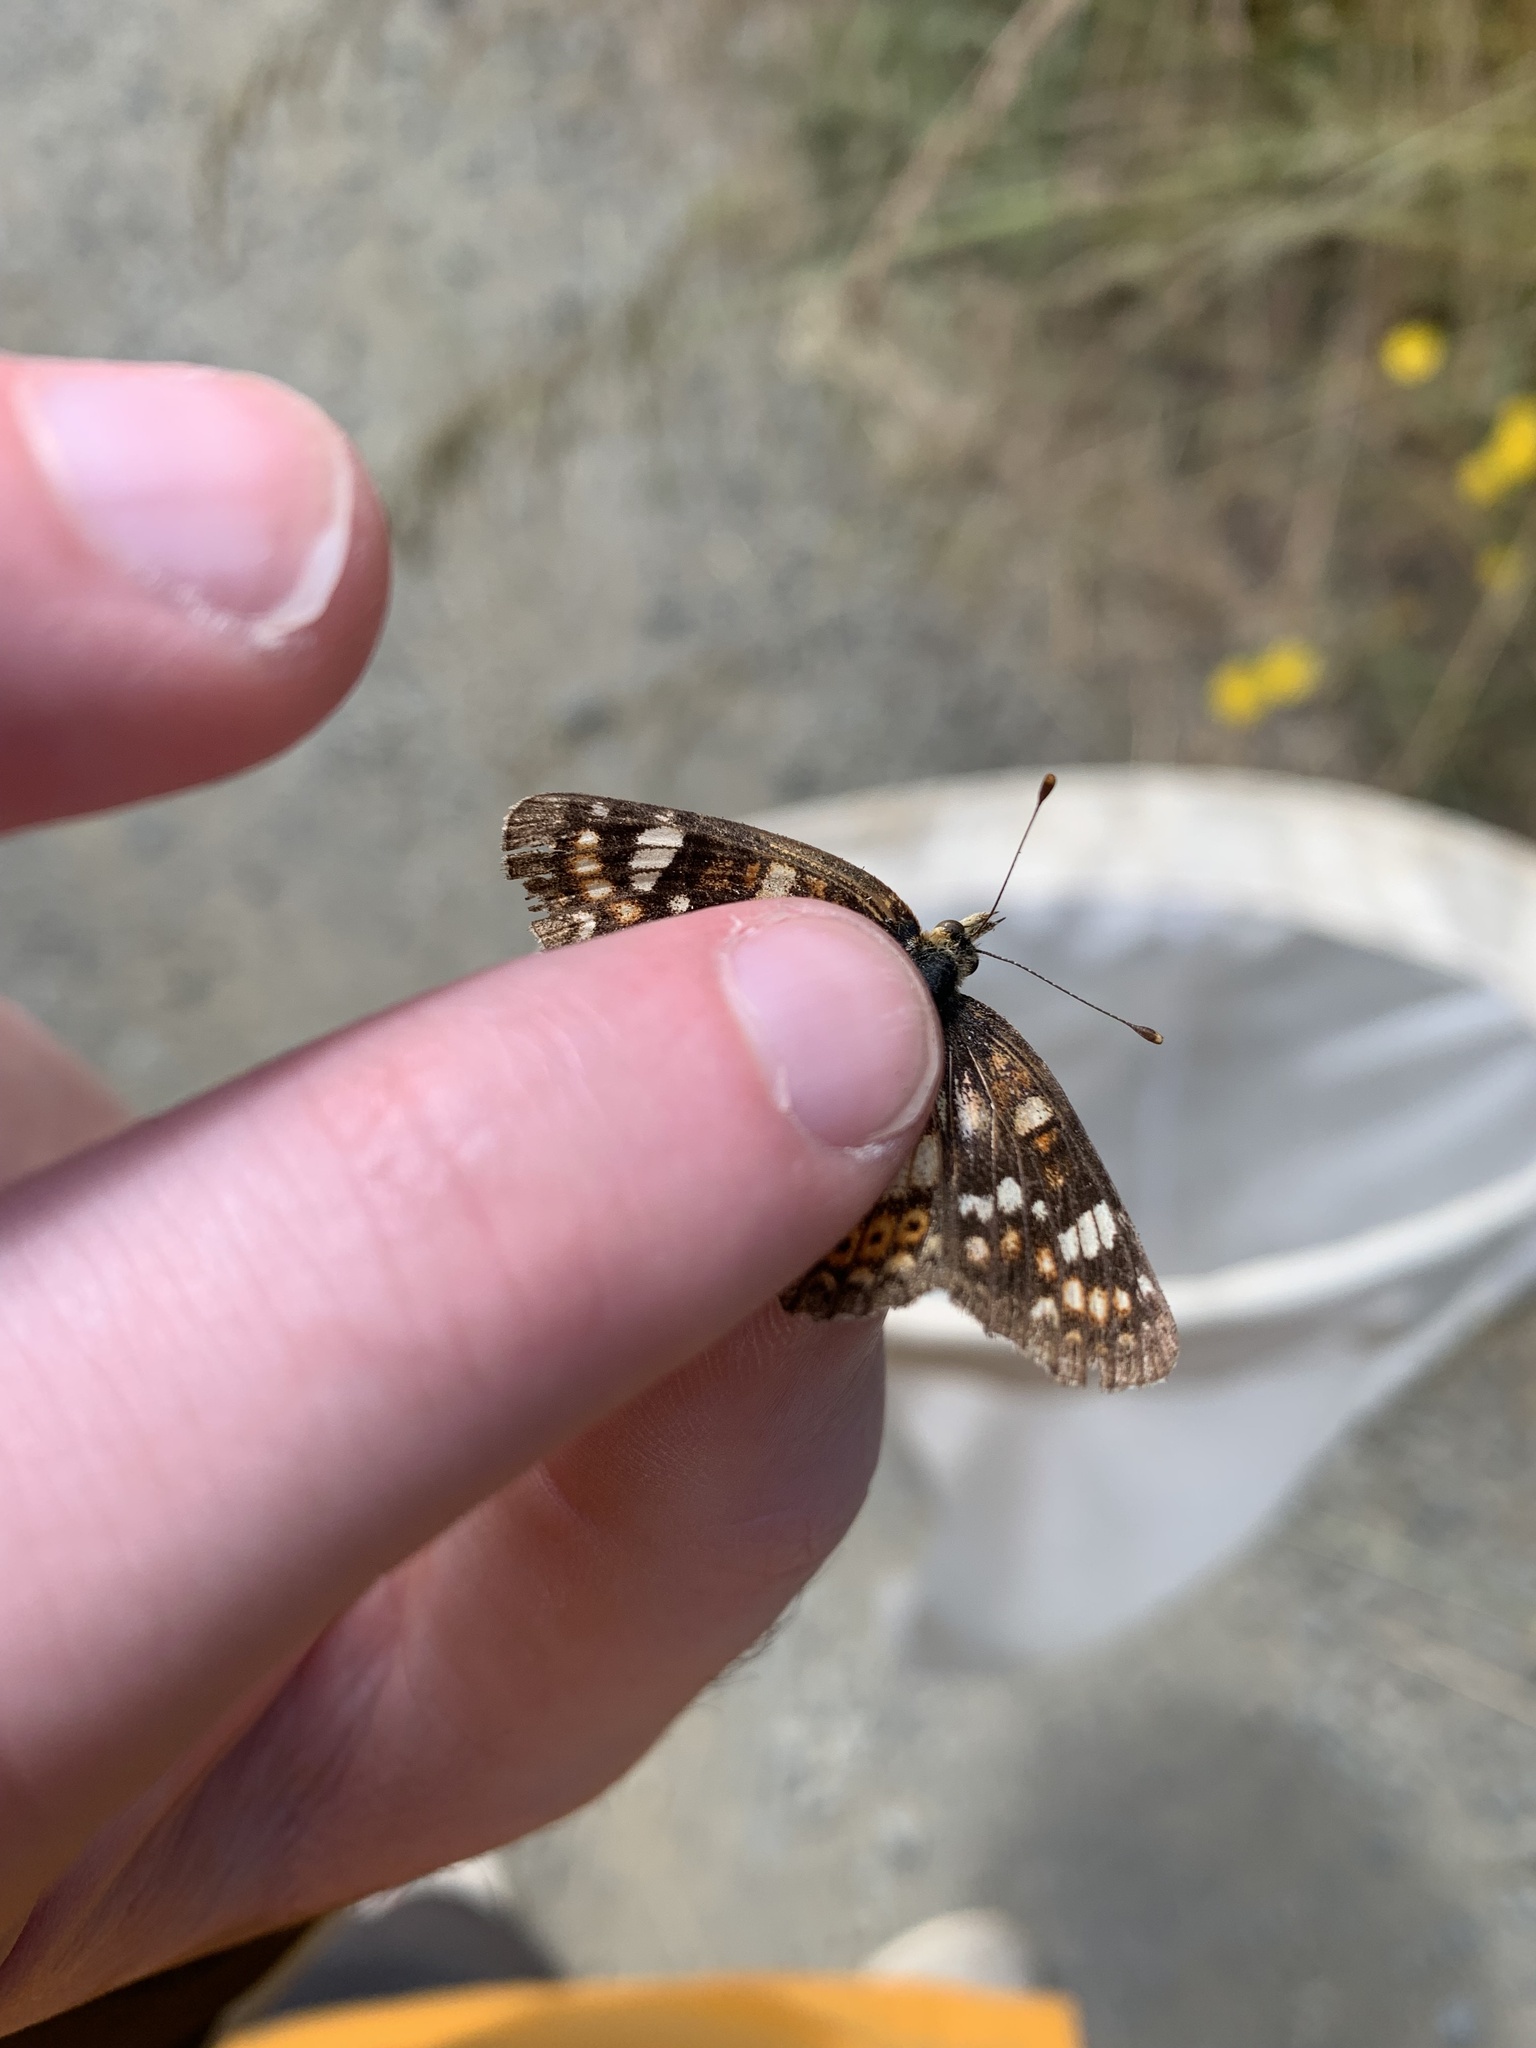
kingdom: Animalia
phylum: Arthropoda
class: Insecta
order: Lepidoptera
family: Nymphalidae
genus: Phyciodes
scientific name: Phyciodes tharos
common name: Pearl crescent
